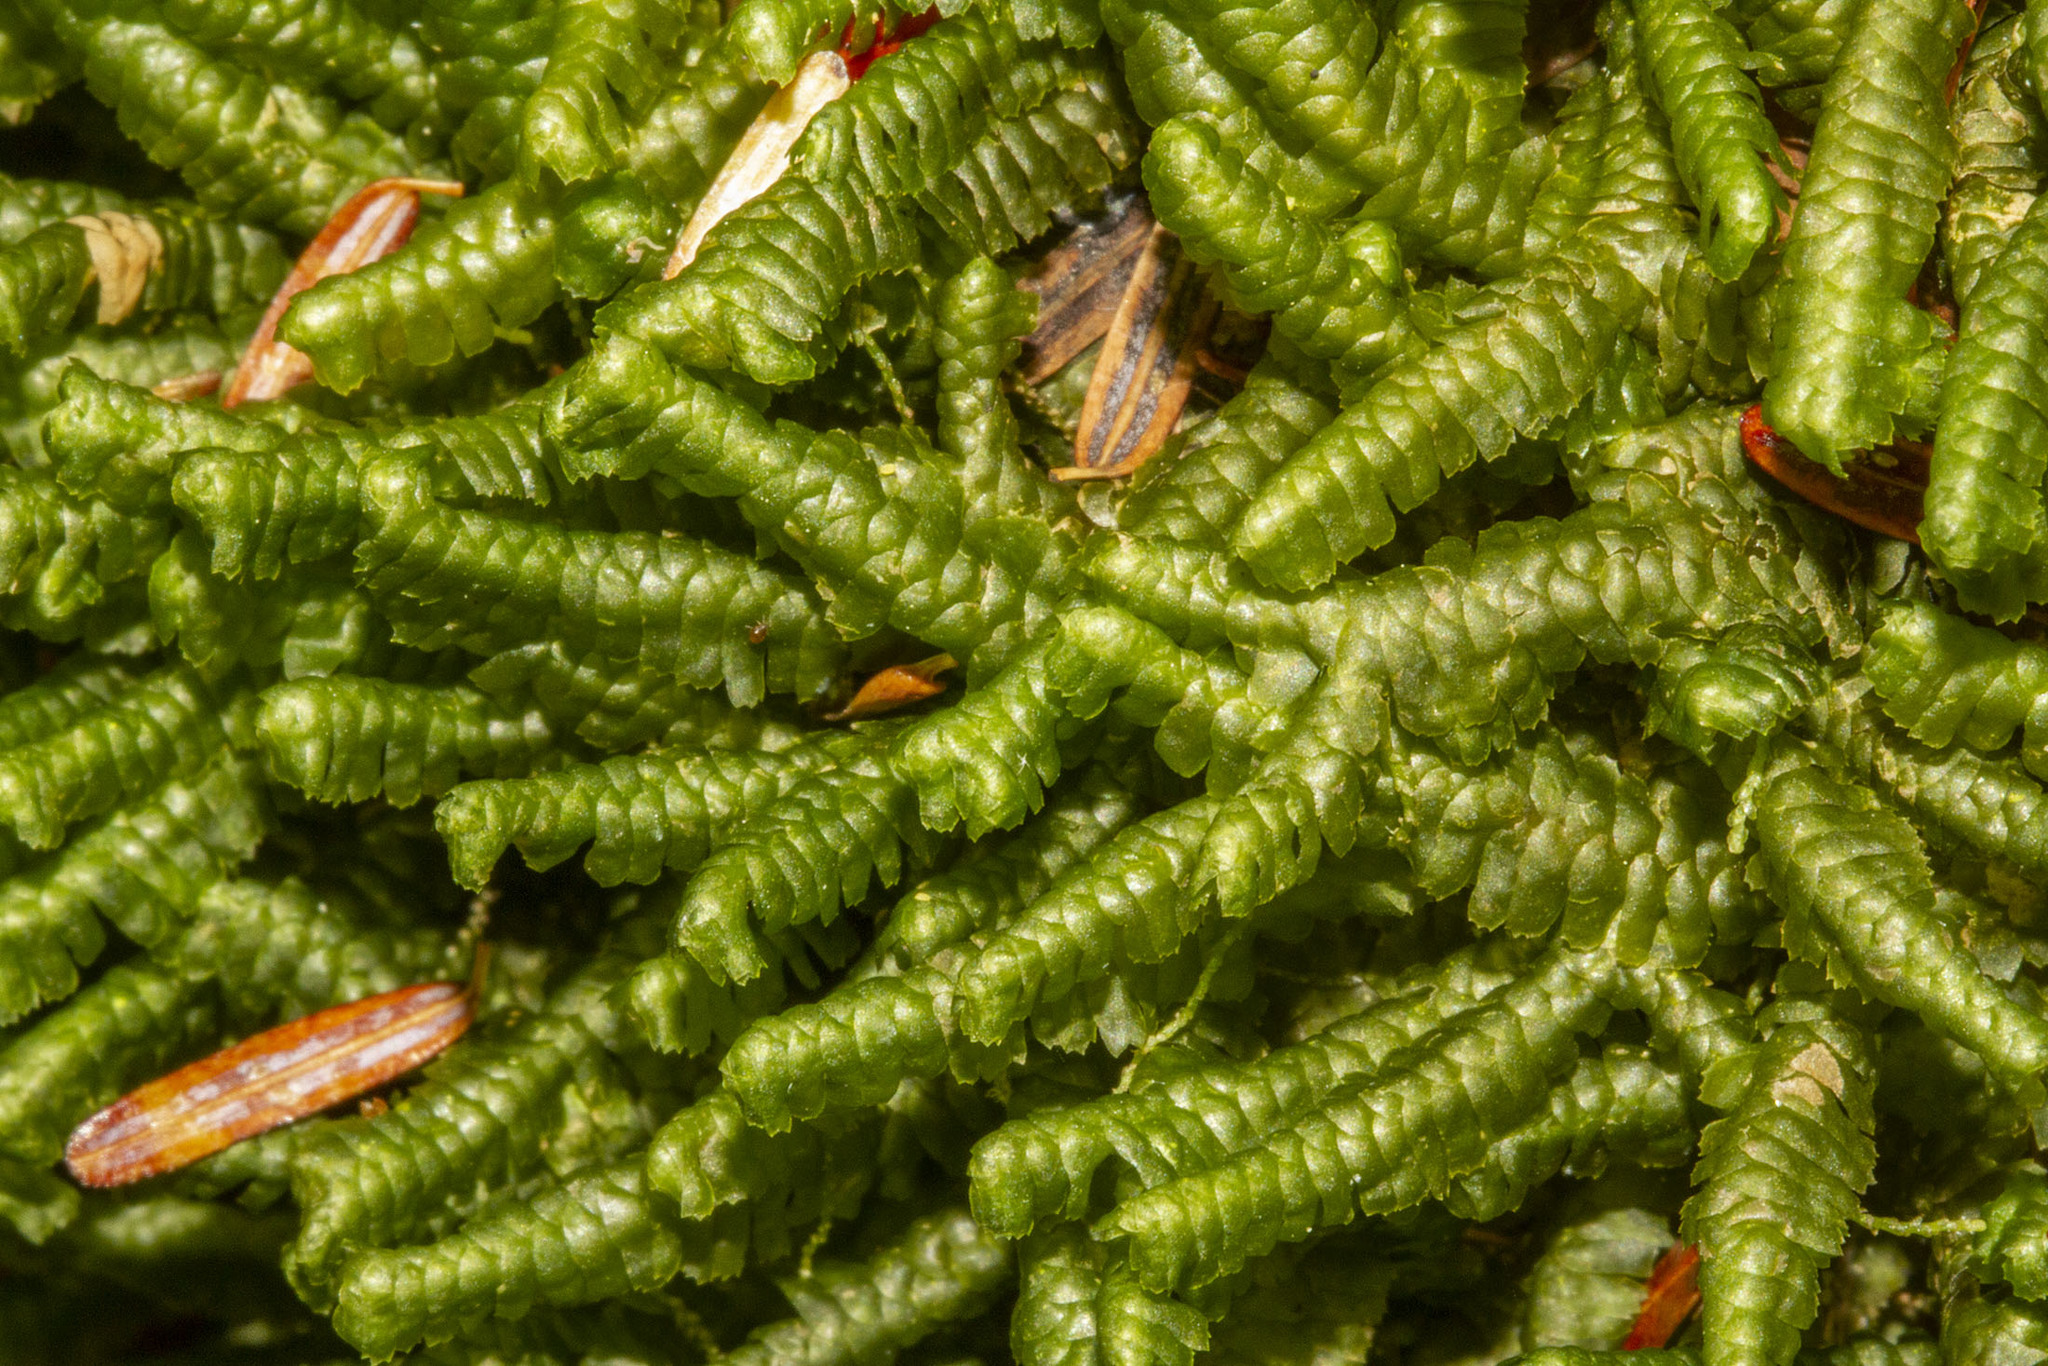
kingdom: Plantae
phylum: Marchantiophyta
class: Jungermanniopsida
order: Jungermanniales
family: Lepidoziaceae
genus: Bazzania
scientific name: Bazzania trilobata
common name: Three-lobed whipwort
